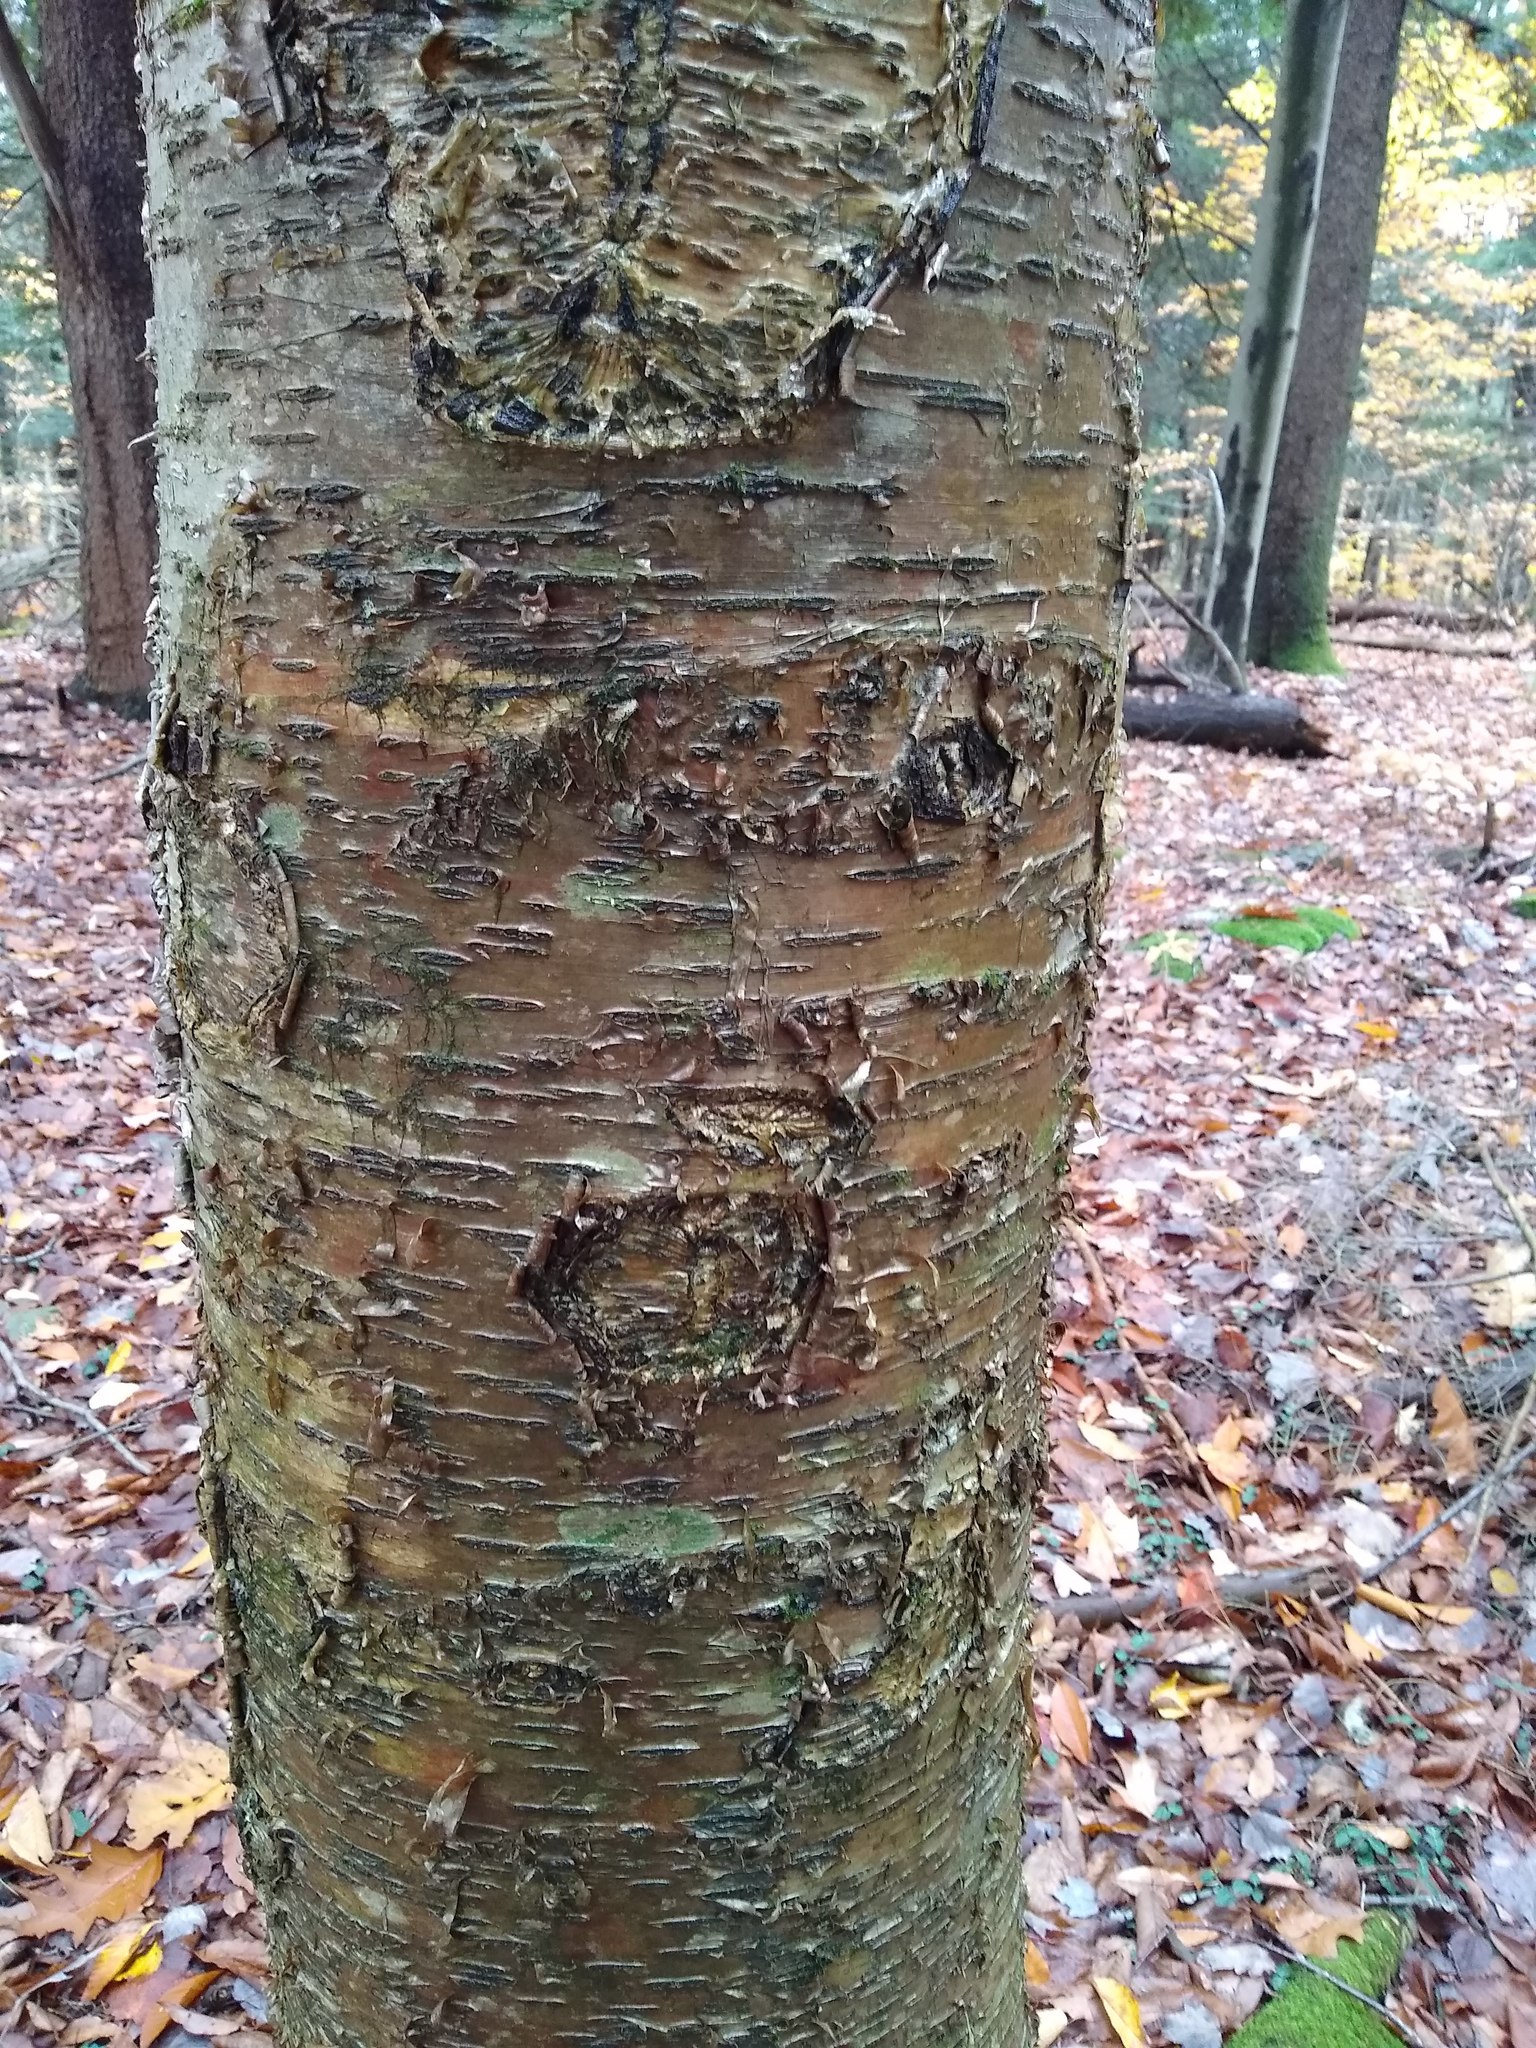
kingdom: Plantae
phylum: Tracheophyta
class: Magnoliopsida
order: Fagales
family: Betulaceae
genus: Betula
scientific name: Betula alleghaniensis
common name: Yellow birch
